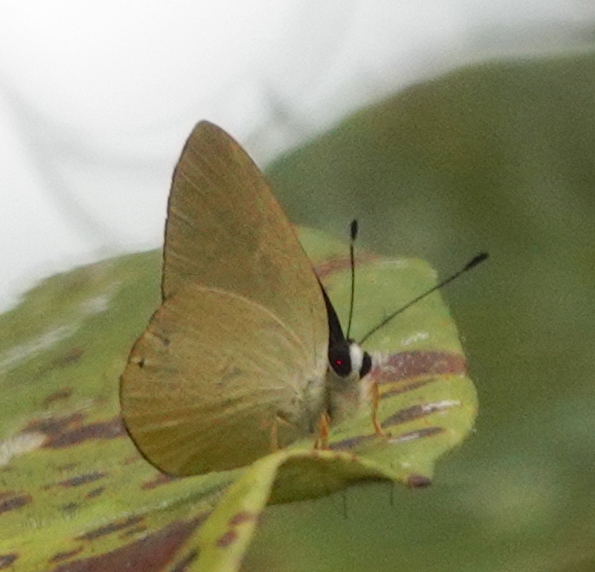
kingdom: Animalia
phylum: Arthropoda
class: Insecta
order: Lepidoptera
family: Riodinidae
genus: Pelolasia
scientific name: Pelolasia
